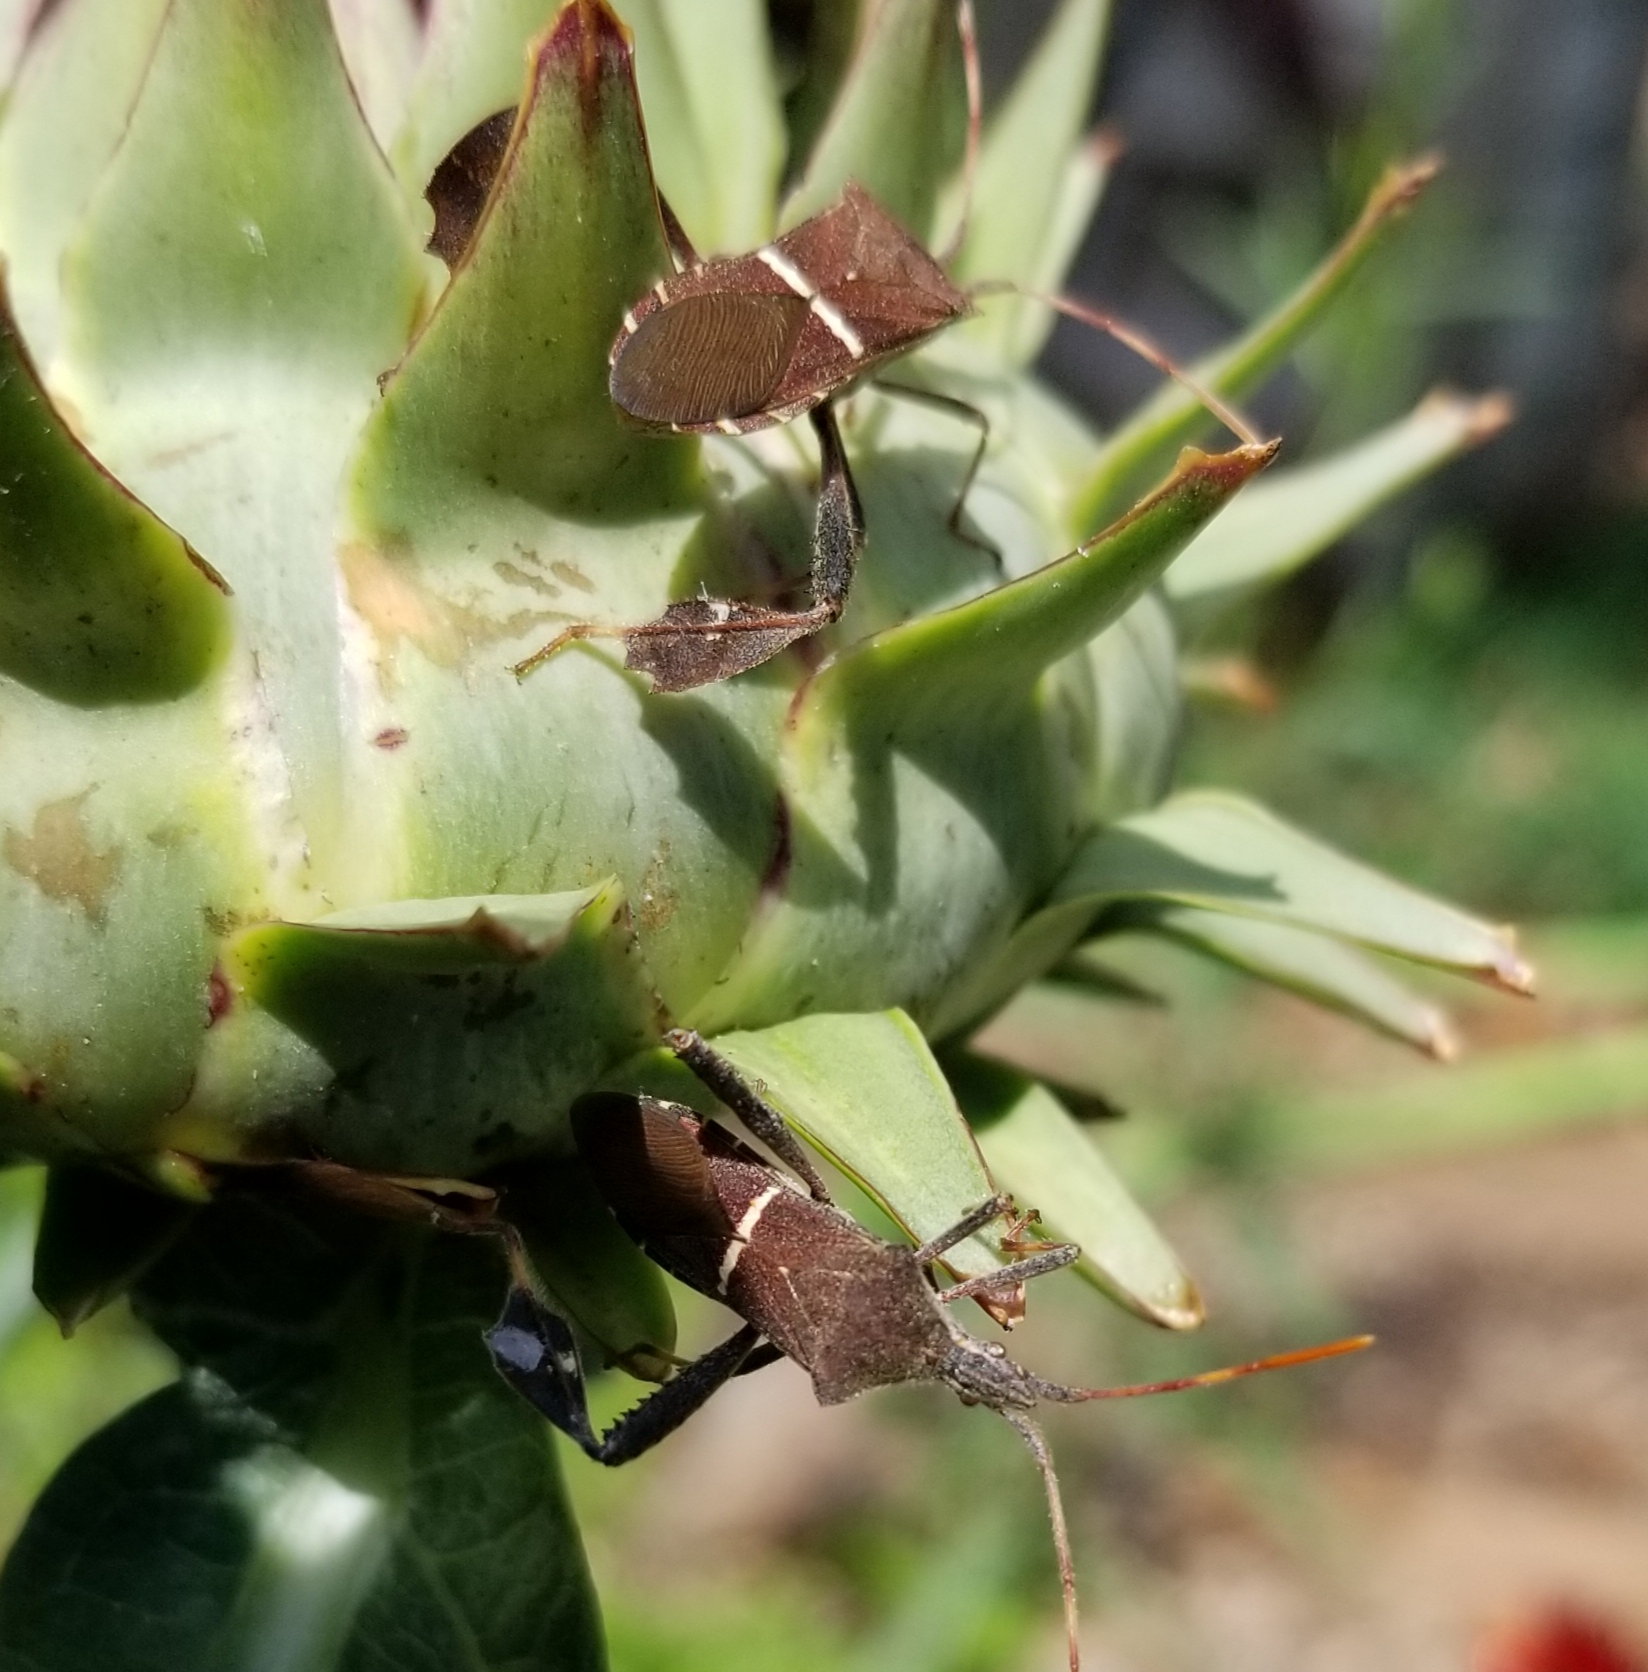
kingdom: Animalia
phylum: Arthropoda
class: Insecta
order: Hemiptera
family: Coreidae
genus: Leptoglossus
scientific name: Leptoglossus phyllopus
